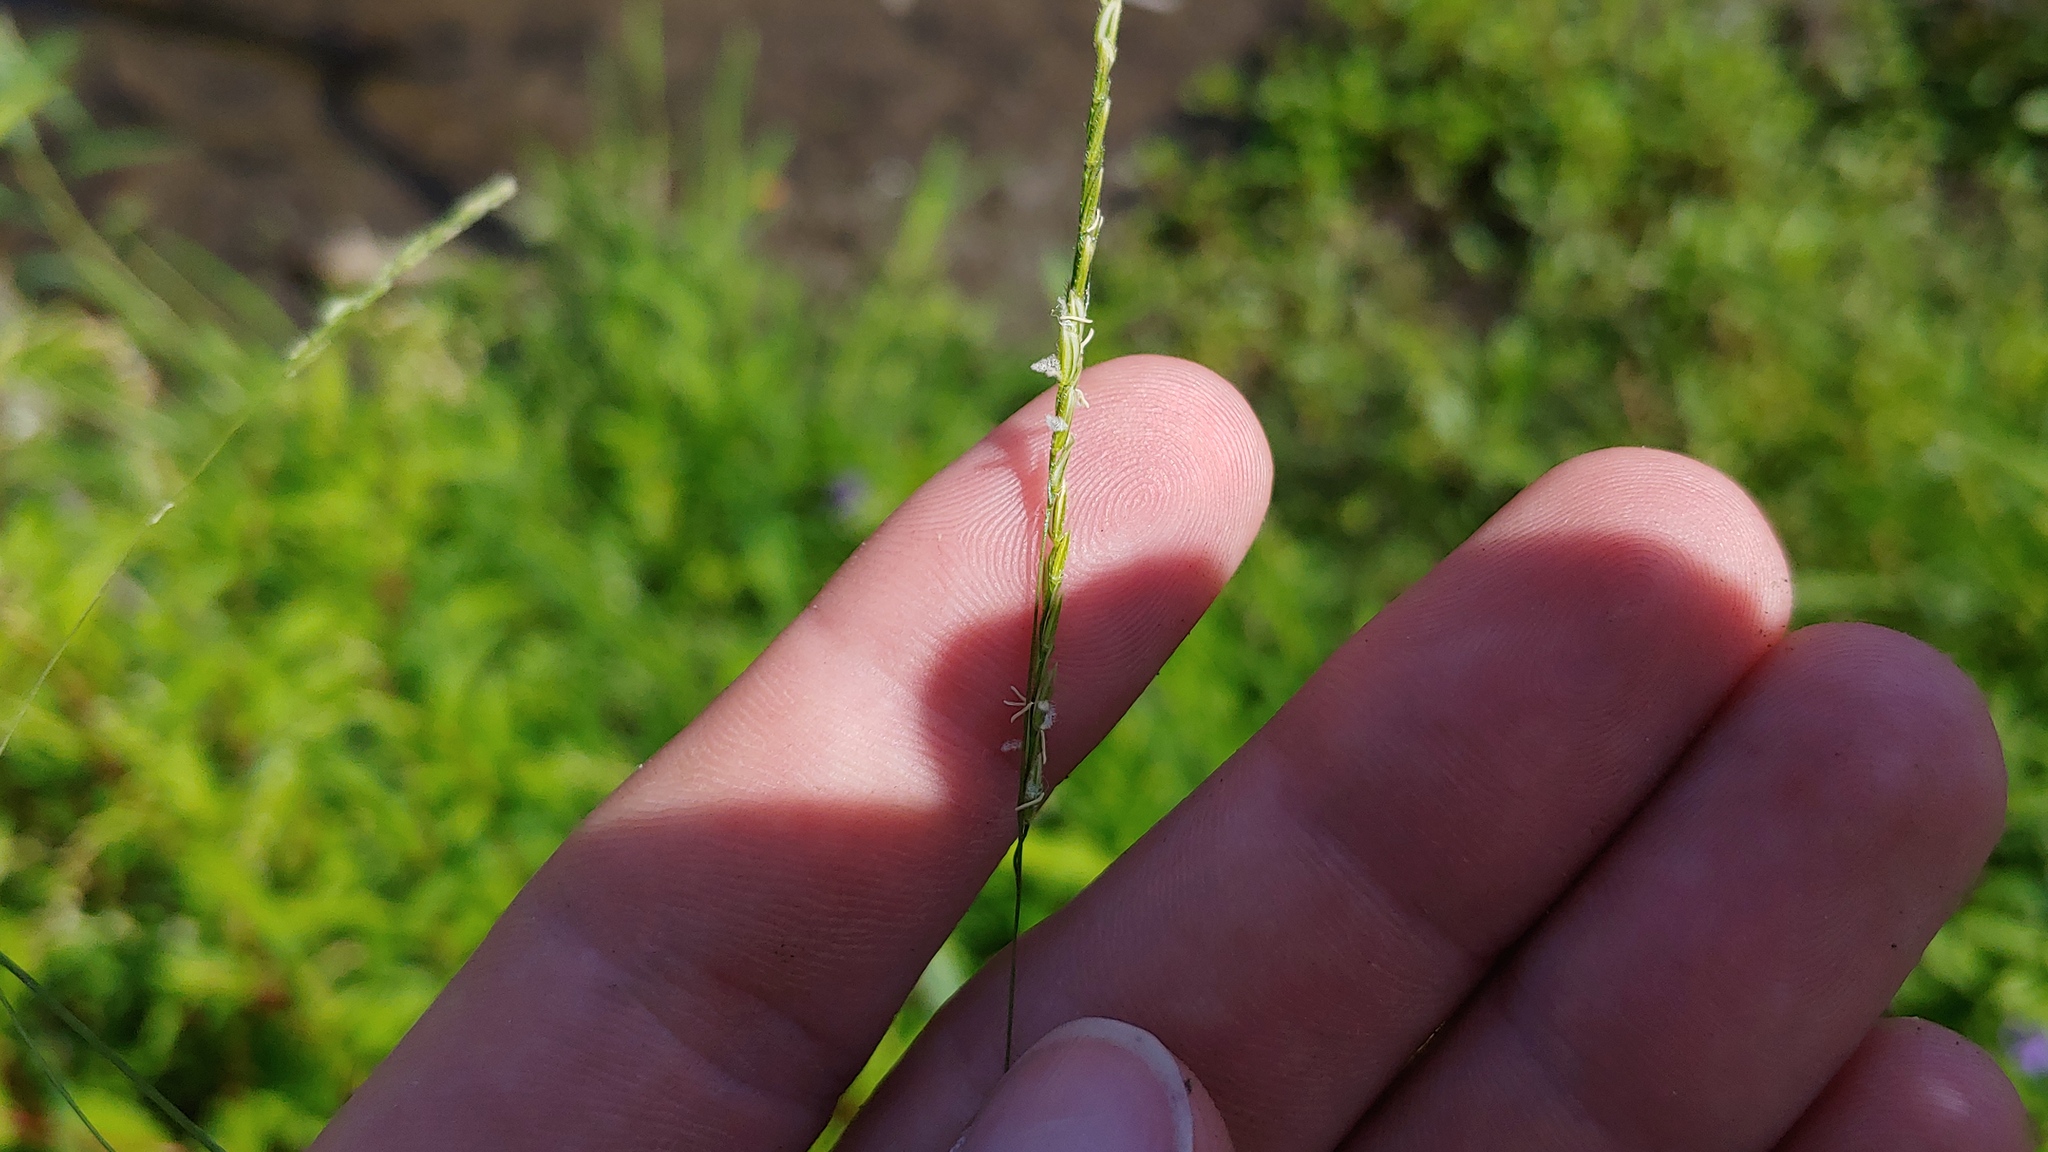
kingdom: Plantae
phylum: Tracheophyta
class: Liliopsida
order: Poales
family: Poaceae
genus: Leersia
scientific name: Leersia virginica
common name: White cutgrass
